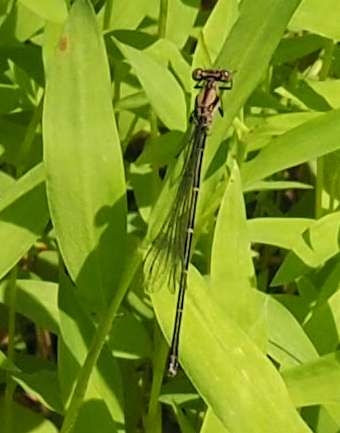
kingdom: Animalia
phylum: Arthropoda
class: Insecta
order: Odonata
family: Coenagrionidae
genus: Argia
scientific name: Argia tibialis
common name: Blue-tipped dancer
